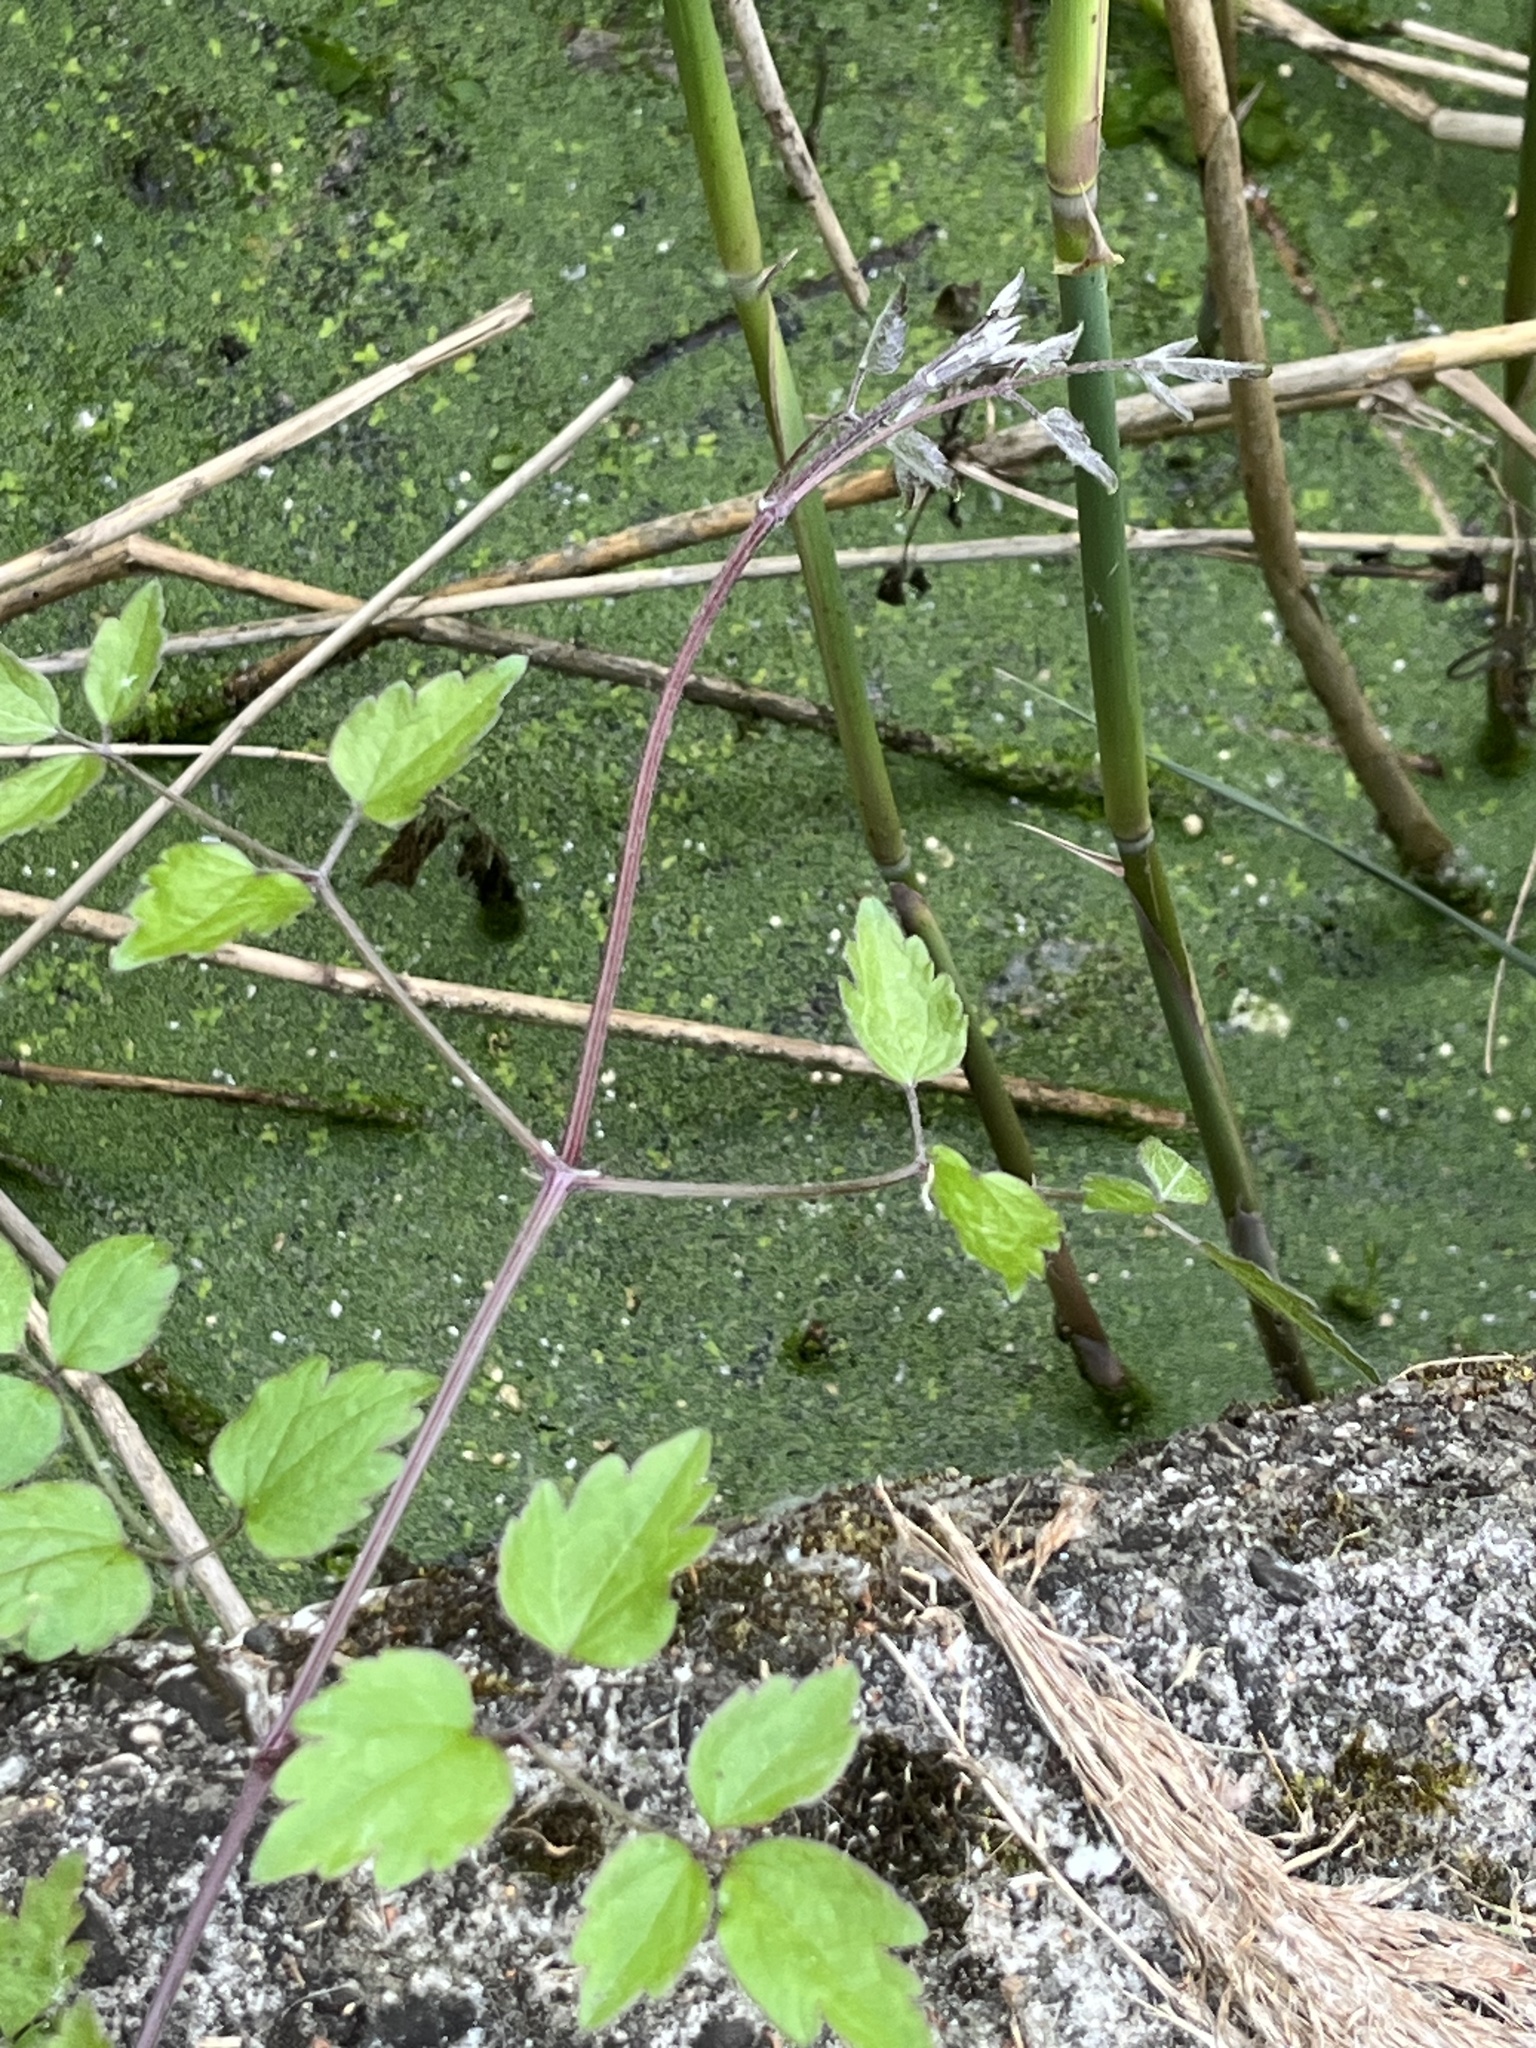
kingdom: Plantae
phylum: Tracheophyta
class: Magnoliopsida
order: Ranunculales
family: Ranunculaceae
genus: Clematis
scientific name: Clematis vitalba
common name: Evergreen clematis
